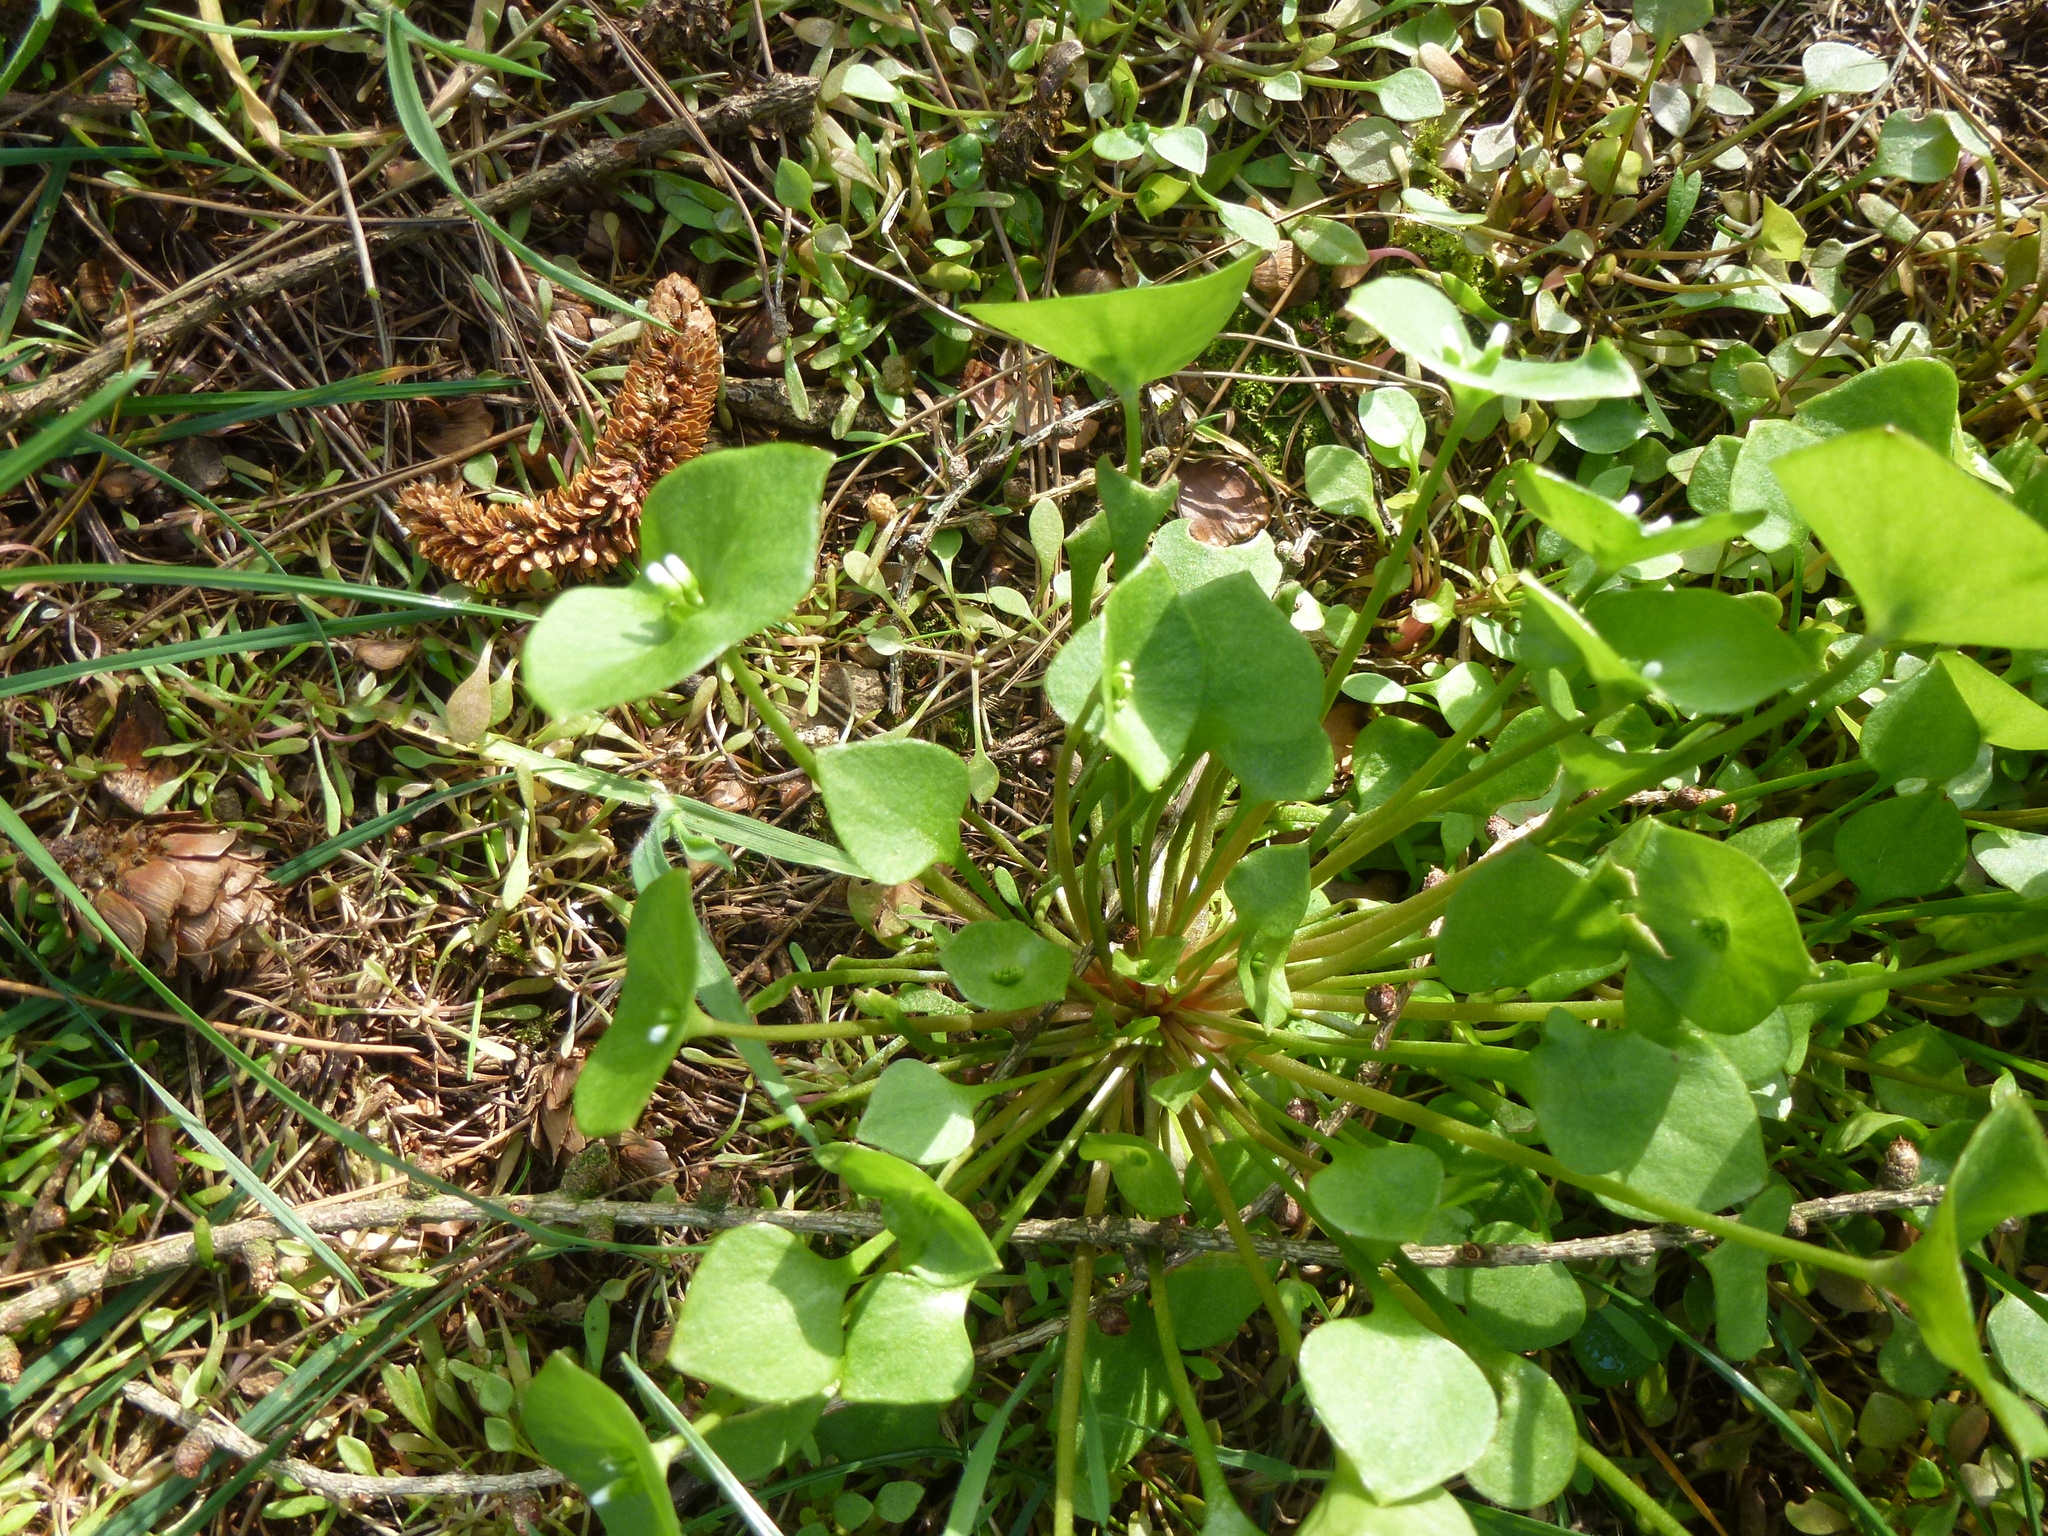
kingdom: Plantae
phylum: Tracheophyta
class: Magnoliopsida
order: Caryophyllales
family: Montiaceae
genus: Claytonia
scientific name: Claytonia perfoliata
